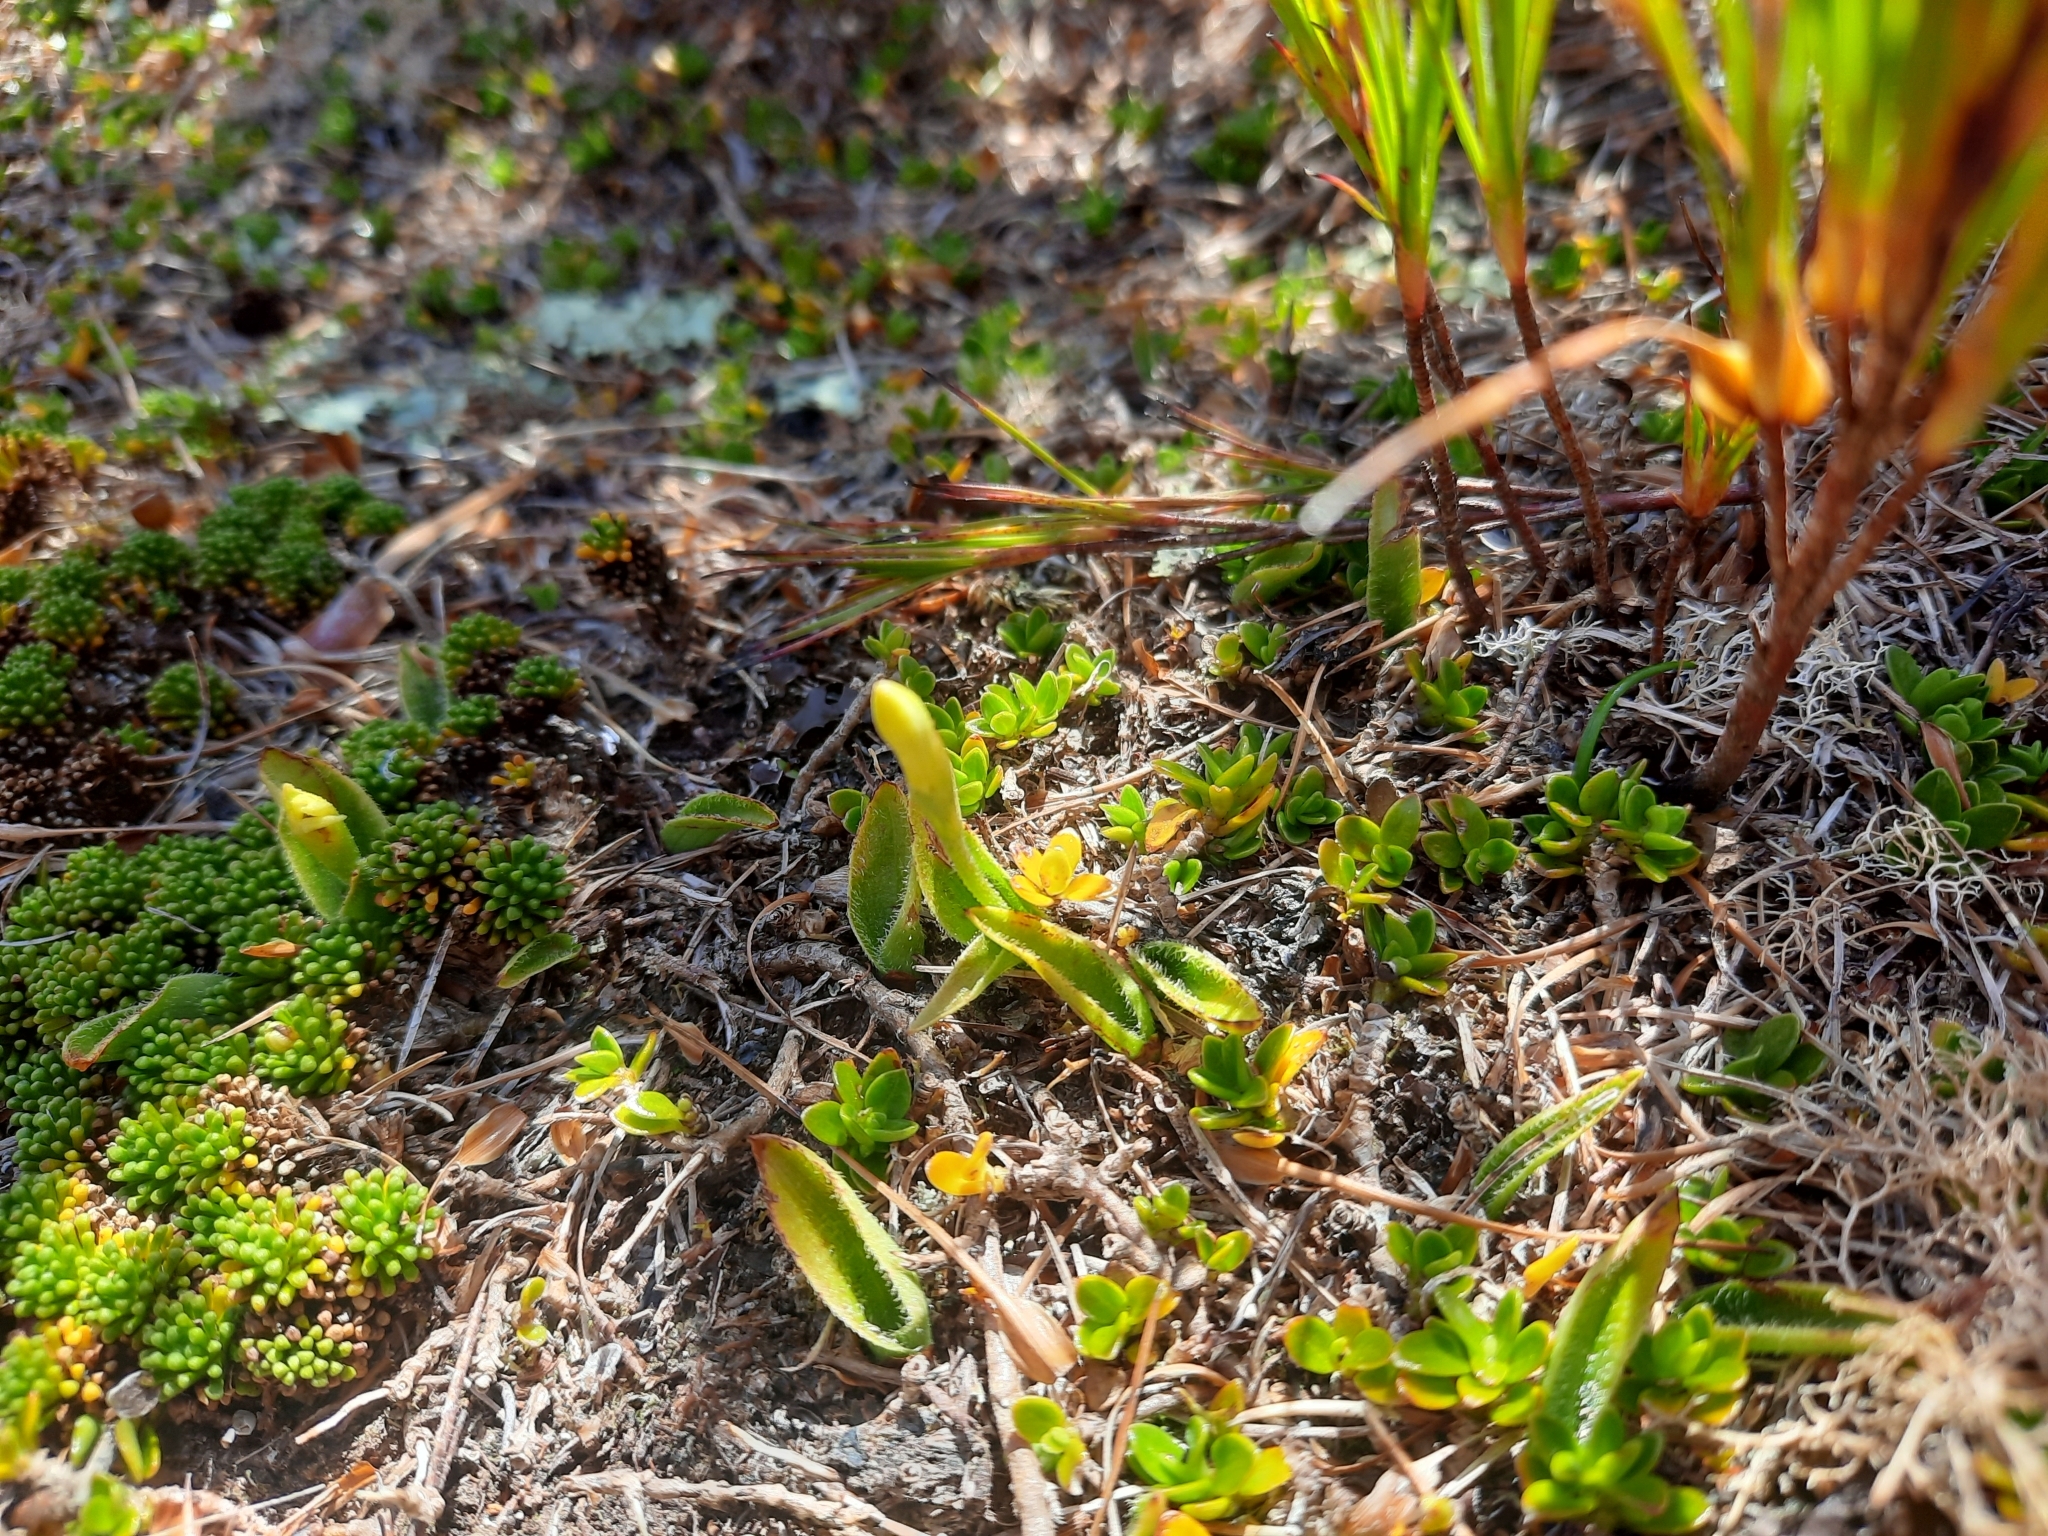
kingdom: Plantae
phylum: Tracheophyta
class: Liliopsida
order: Asparagales
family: Orchidaceae
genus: Aporostylis
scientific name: Aporostylis bifolia
